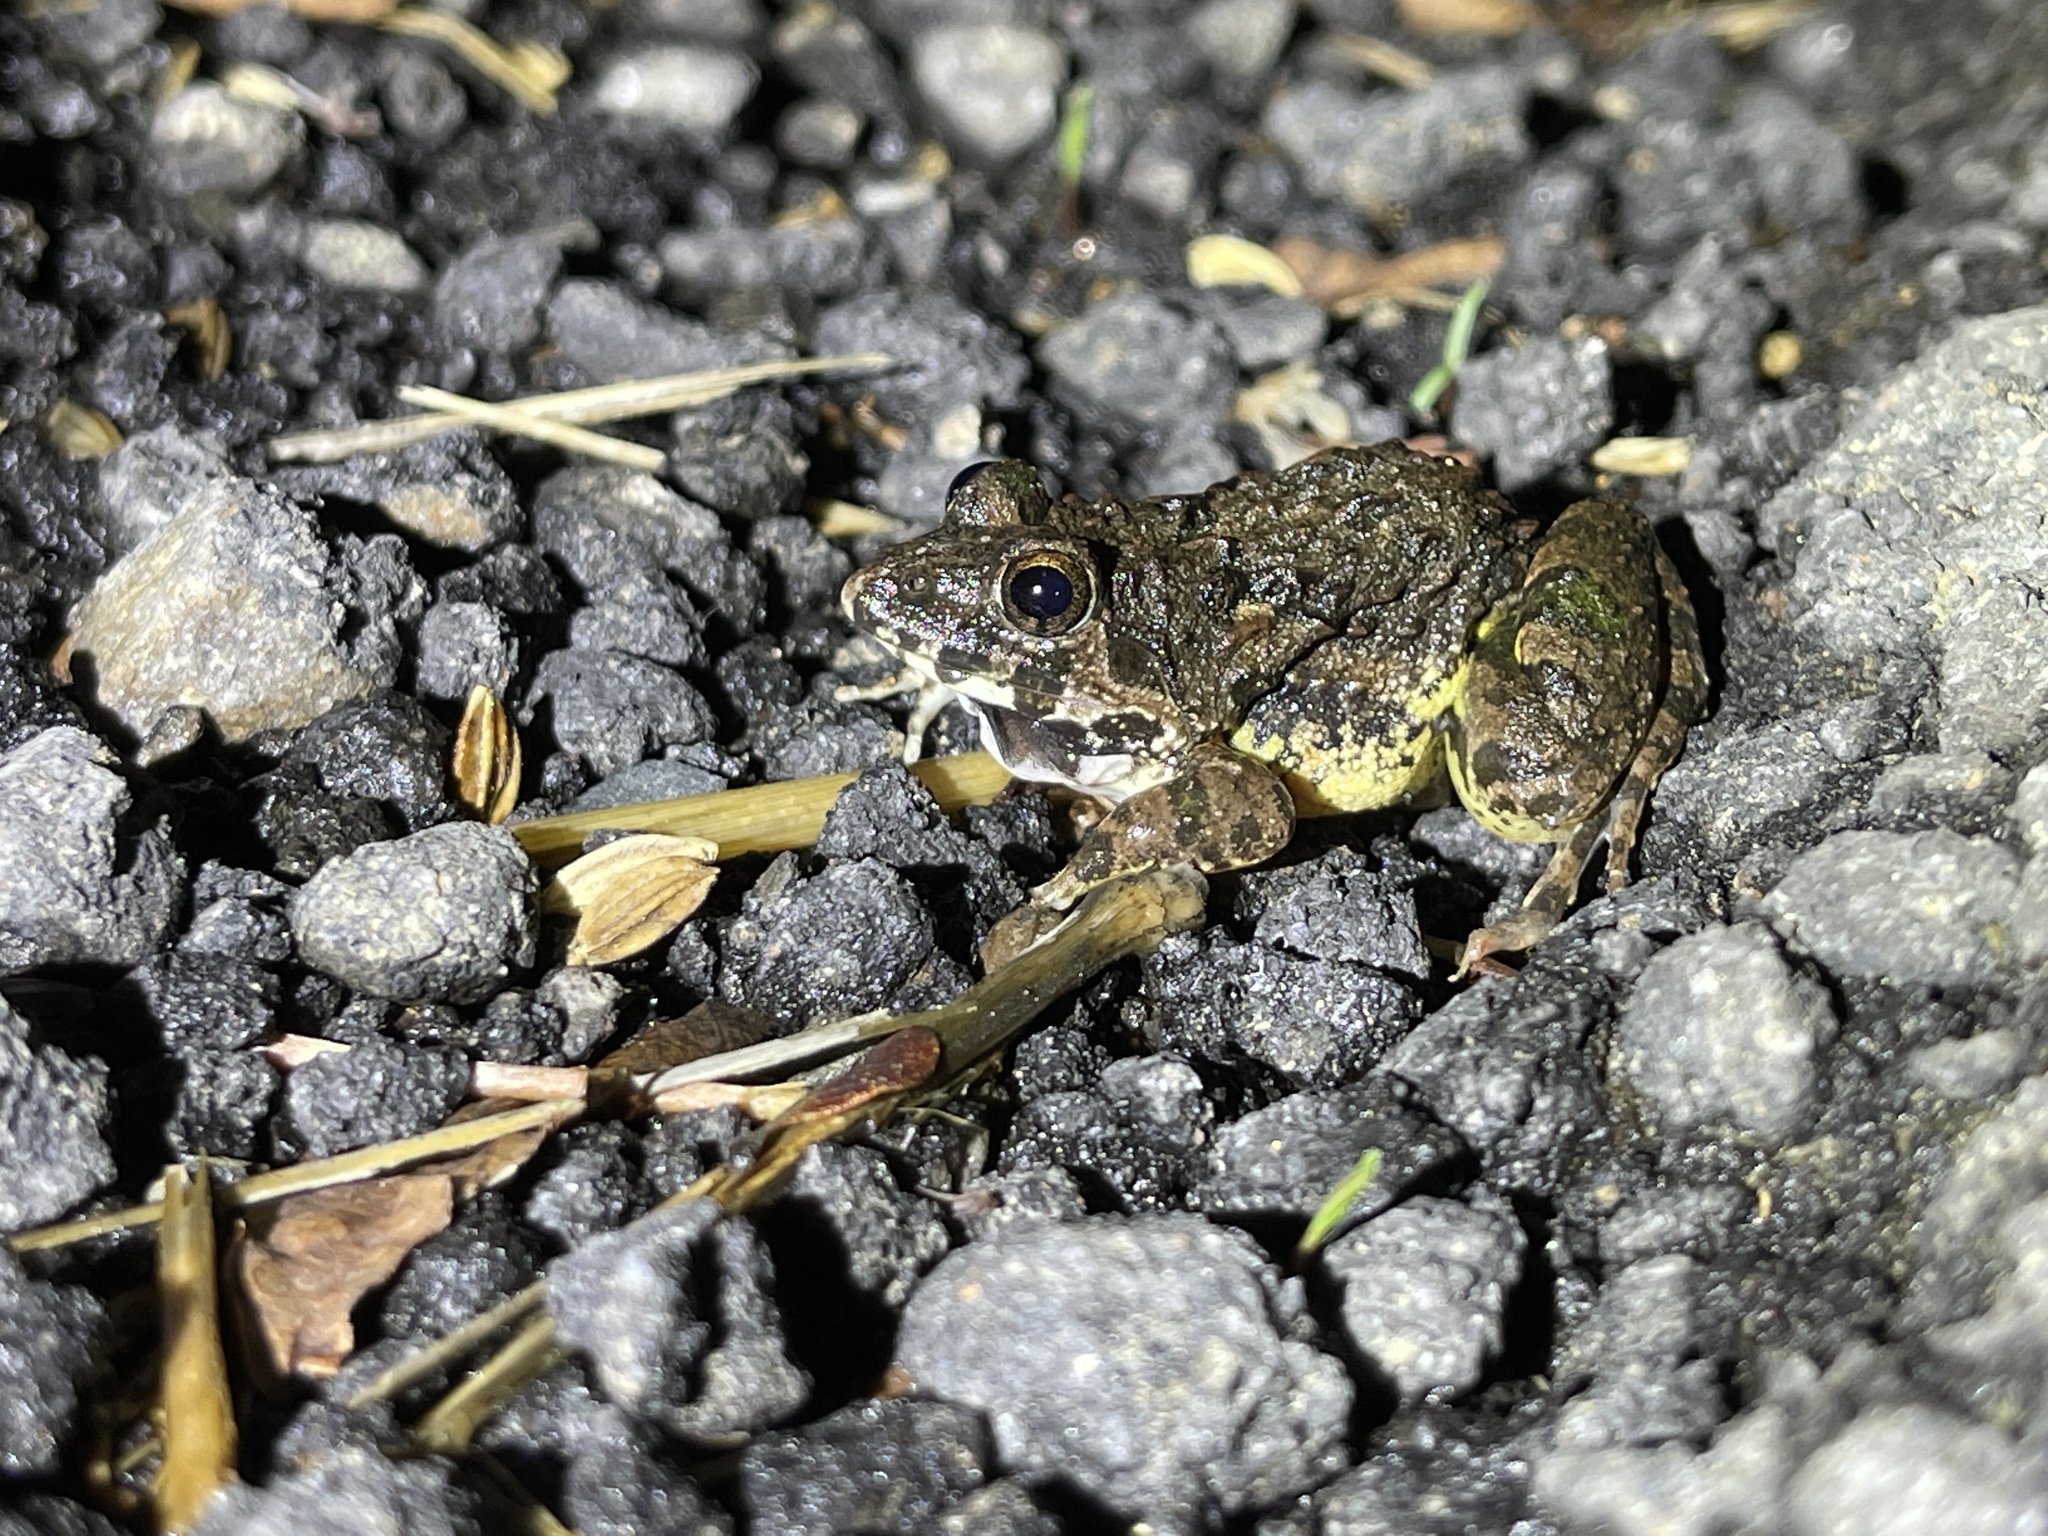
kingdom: Animalia
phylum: Chordata
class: Amphibia
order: Anura
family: Dicroglossidae
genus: Fejervarya
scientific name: Fejervarya limnocharis
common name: Asian grass frog/common pond frog/field frog/grass frog/indian rice frog
